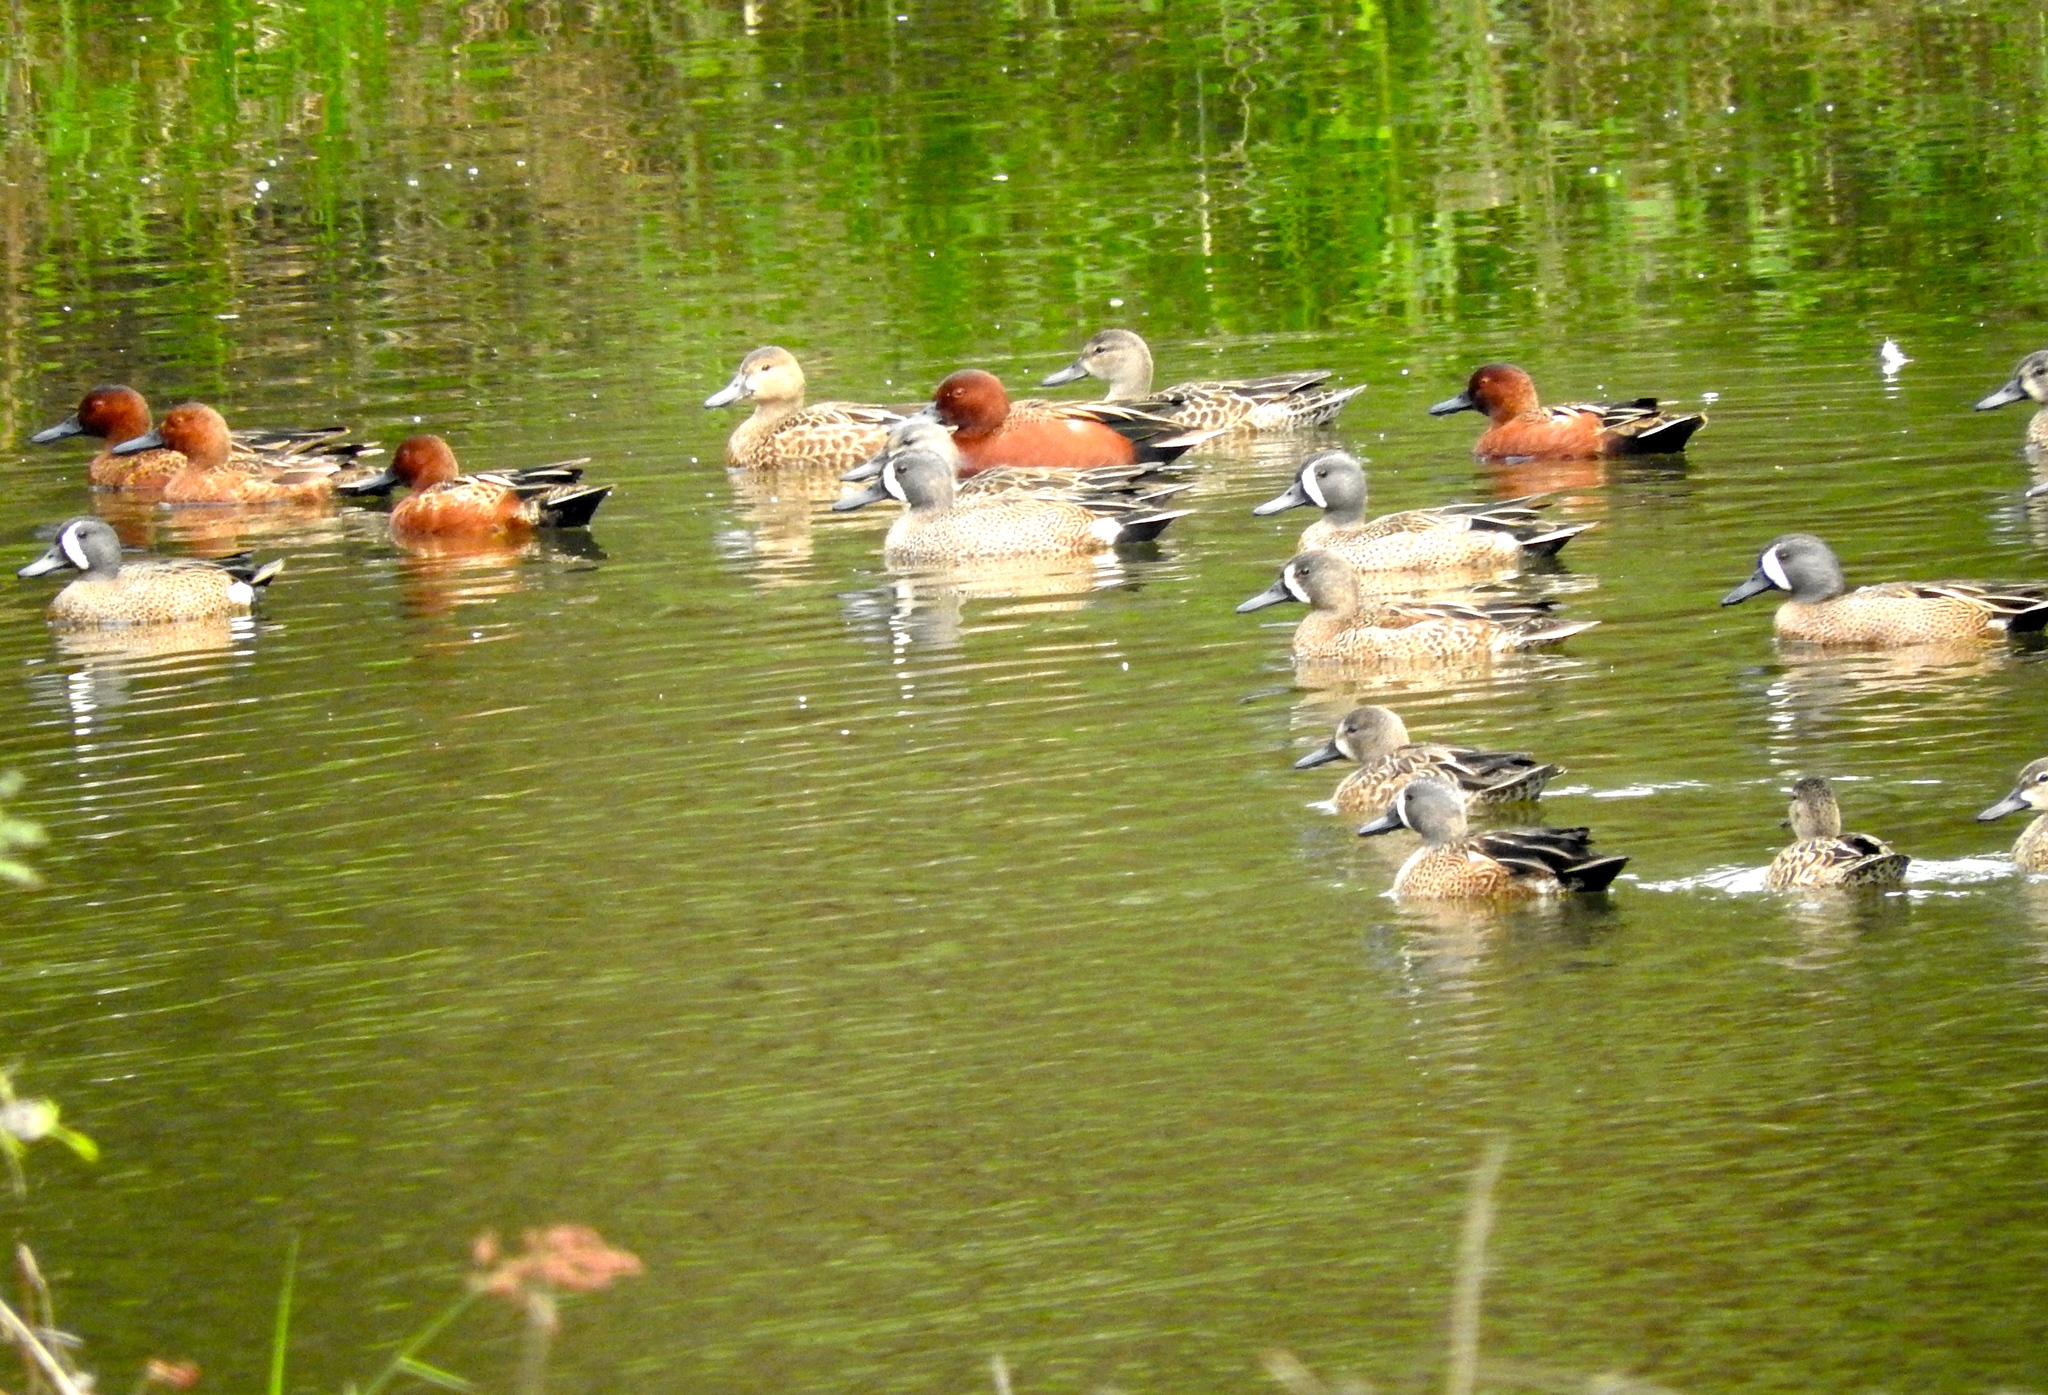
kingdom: Animalia
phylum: Chordata
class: Aves
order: Anseriformes
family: Anatidae
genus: Spatula
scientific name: Spatula cyanoptera
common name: Cinnamon teal
